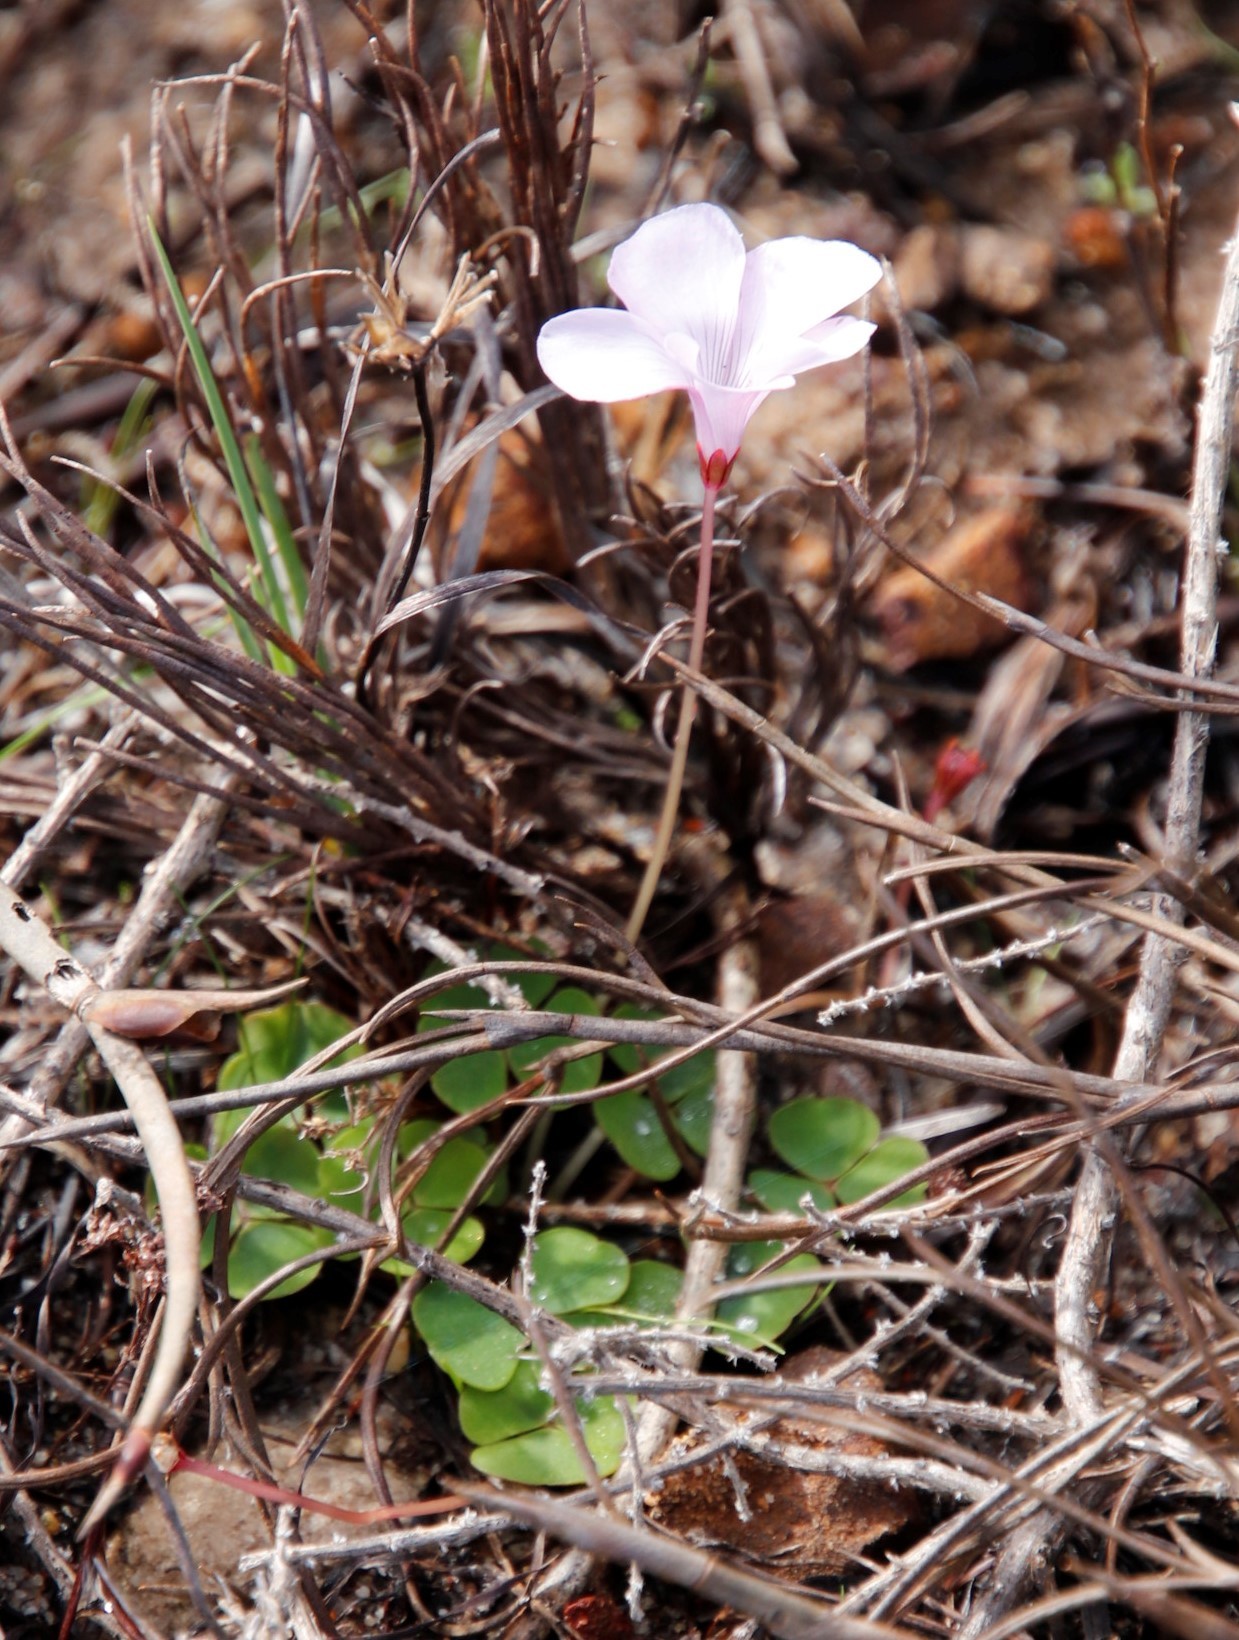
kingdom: Plantae
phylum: Tracheophyta
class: Magnoliopsida
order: Oxalidales
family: Oxalidaceae
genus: Oxalis
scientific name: Oxalis commutata
